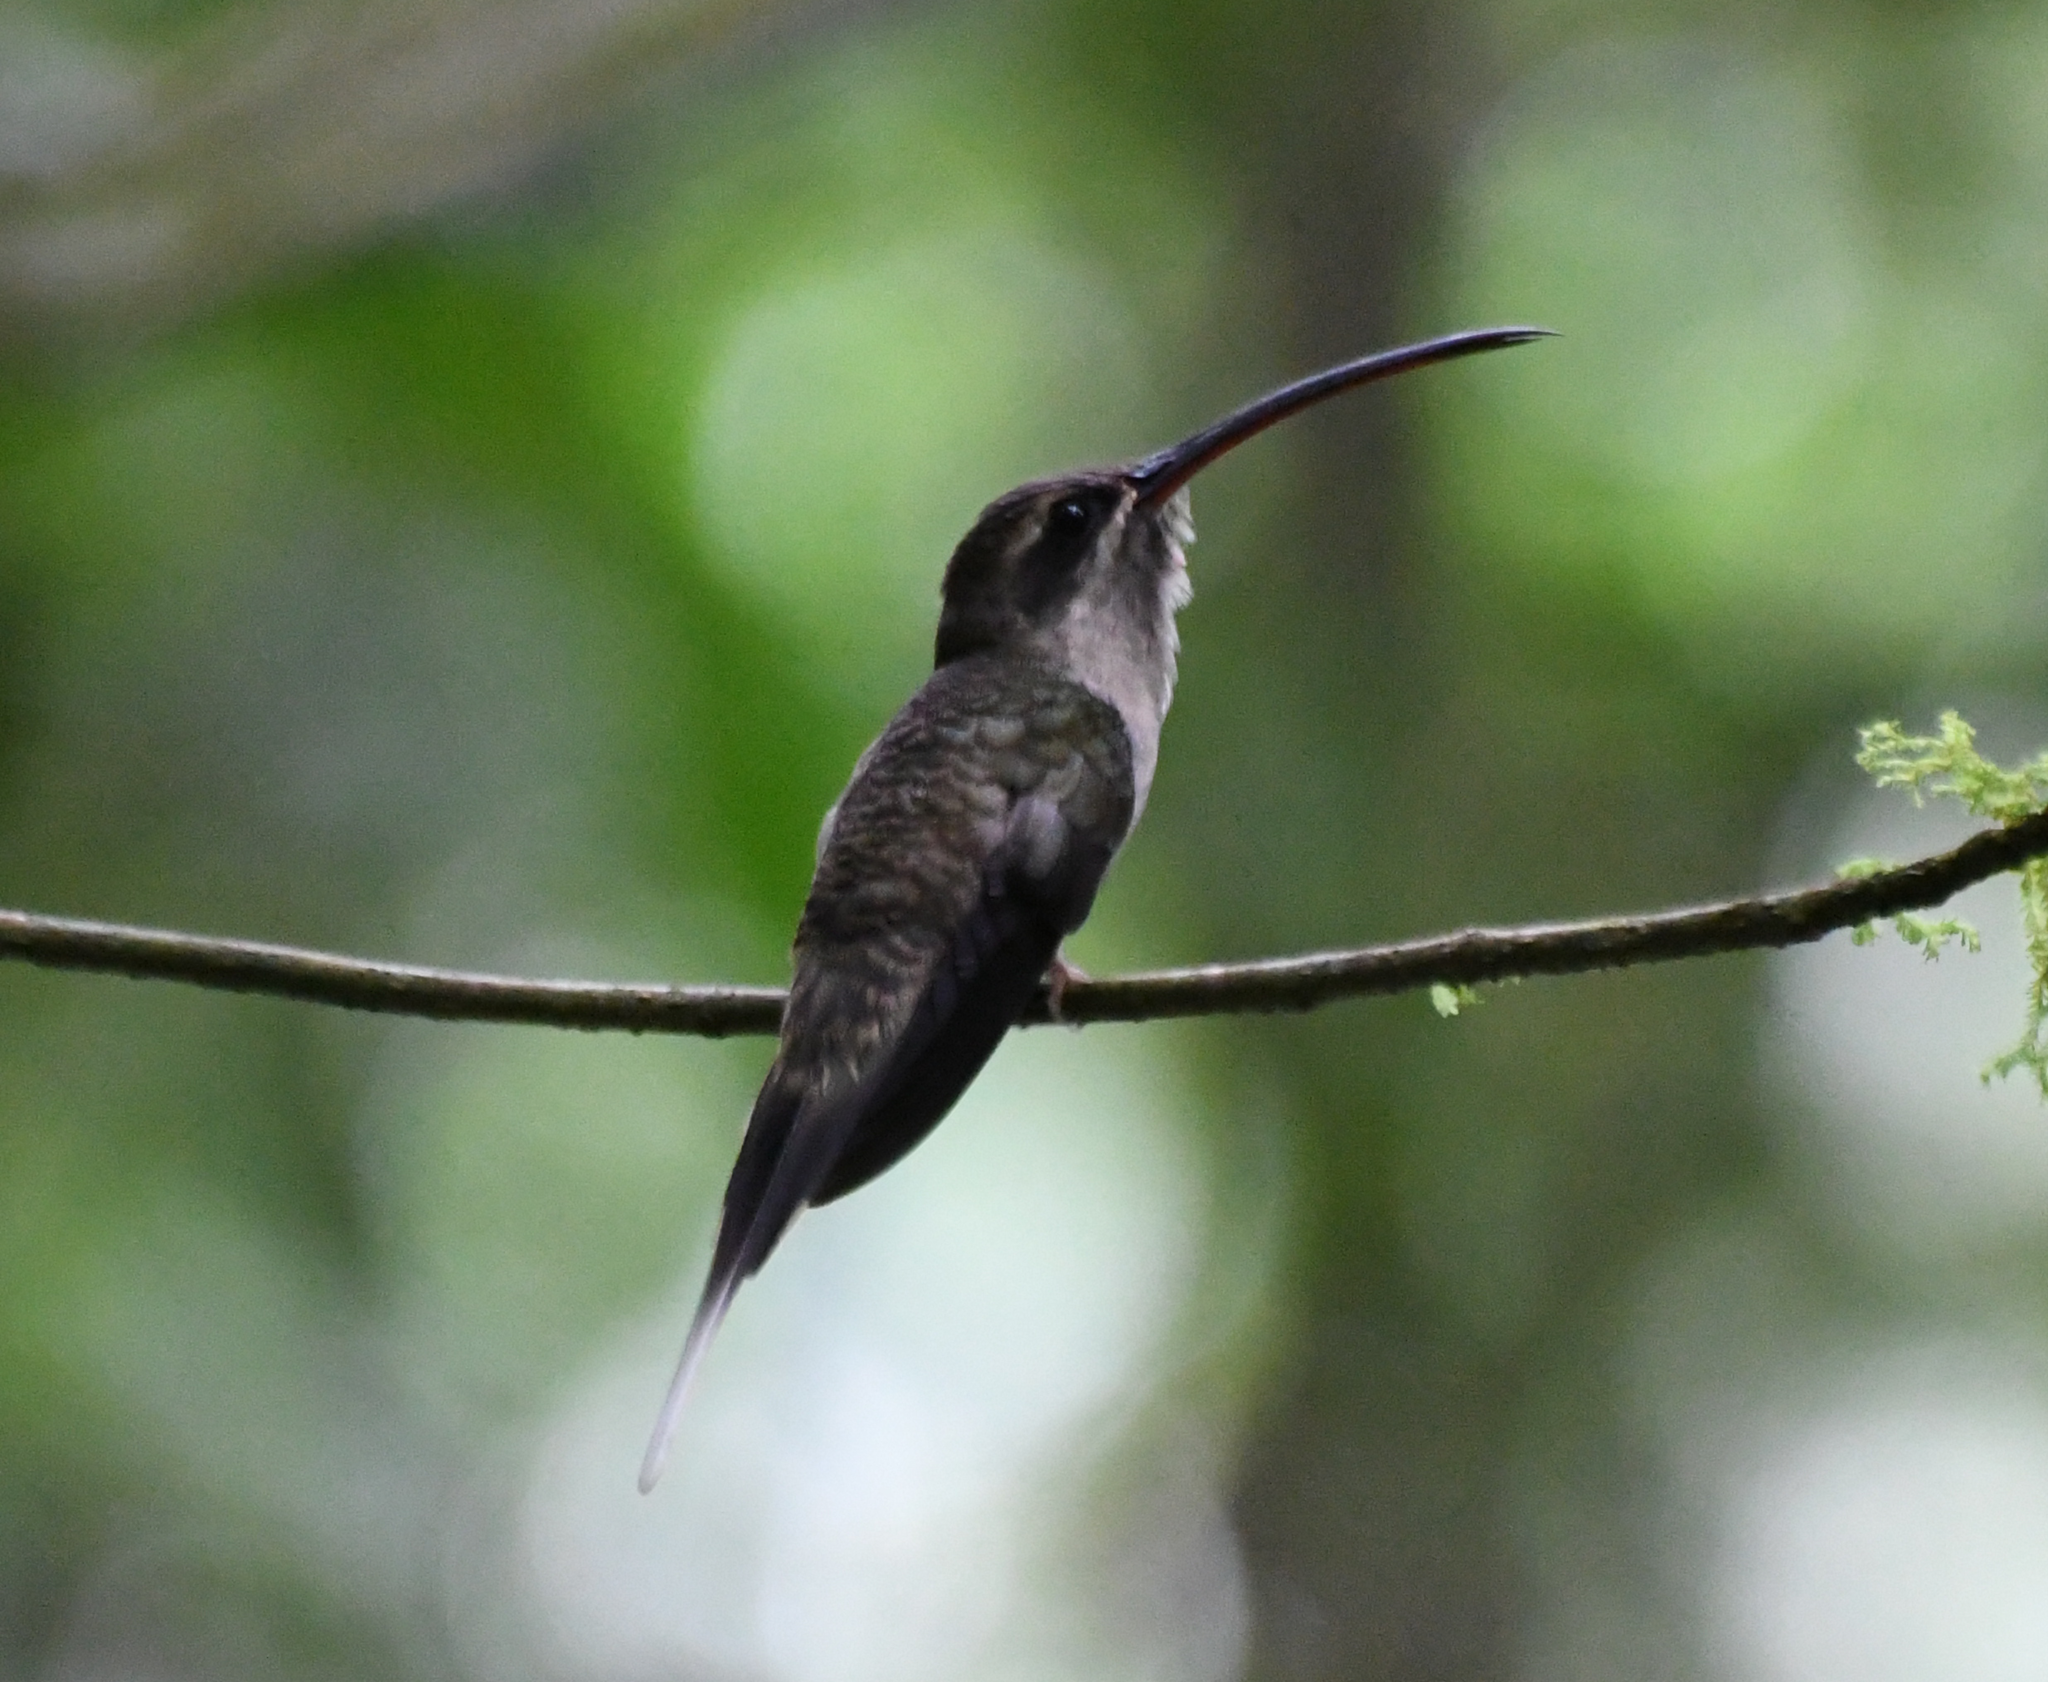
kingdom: Animalia
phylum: Chordata
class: Aves
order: Apodiformes
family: Trochilidae
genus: Phaethornis
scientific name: Phaethornis malaris
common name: Great-billed hermit
